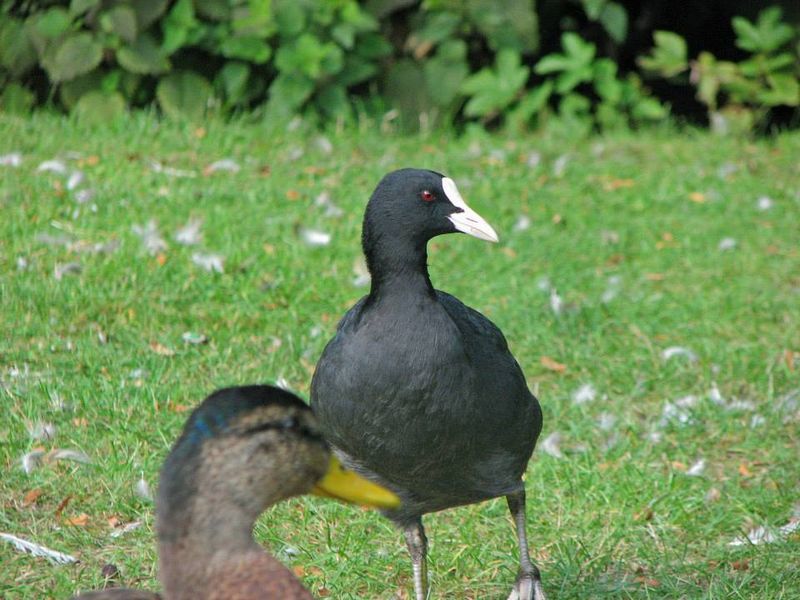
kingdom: Animalia
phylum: Chordata
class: Aves
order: Gruiformes
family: Rallidae
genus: Fulica
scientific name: Fulica atra
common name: Eurasian coot
